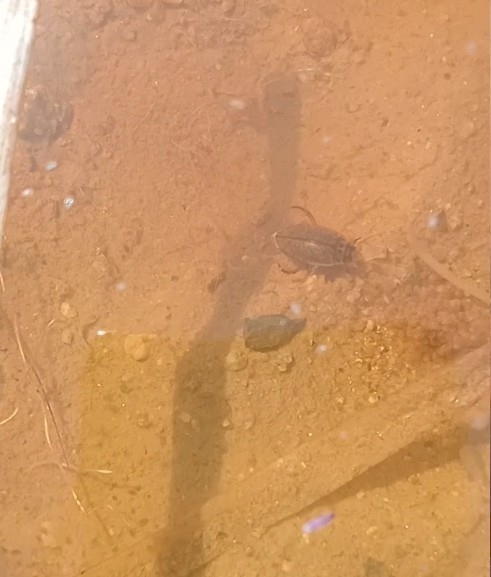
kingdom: Animalia
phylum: Arthropoda
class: Insecta
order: Coleoptera
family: Dytiscidae
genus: Rhantus
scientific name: Rhantus
